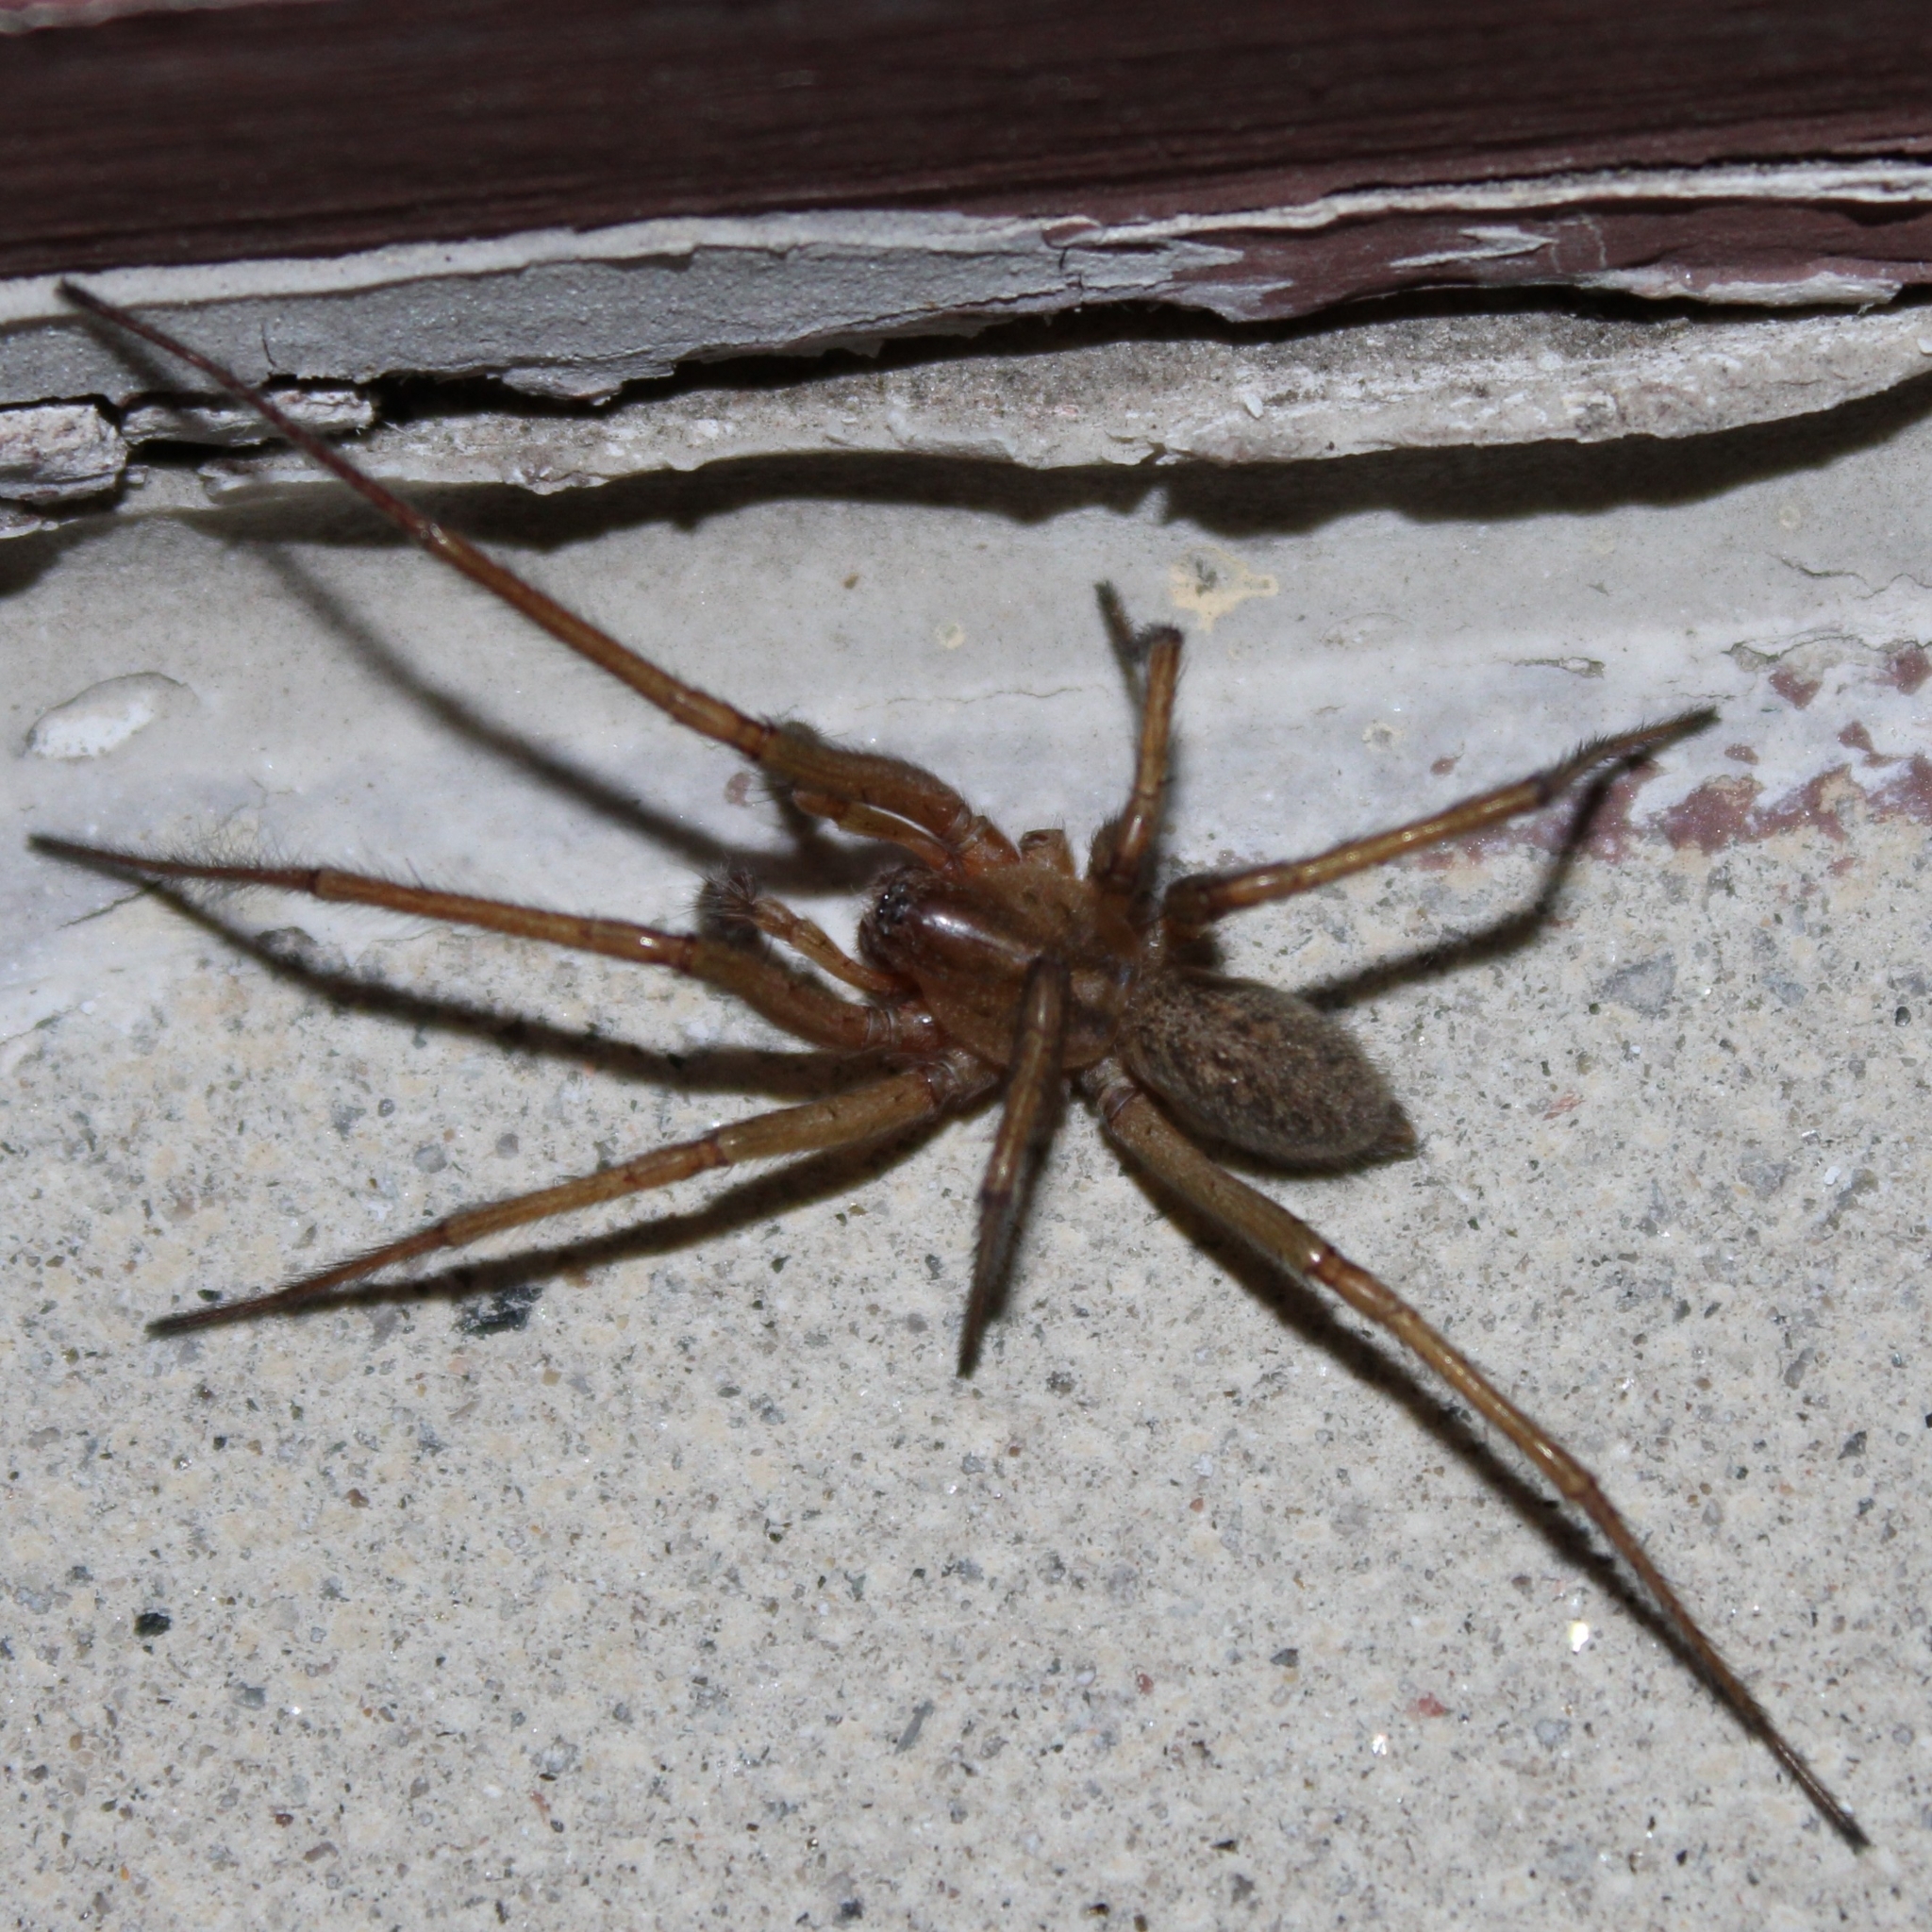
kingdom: Animalia
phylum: Arthropoda
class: Arachnida
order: Araneae
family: Agelenidae
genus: Eratigena
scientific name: Eratigena agrestis
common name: Hobo spider
